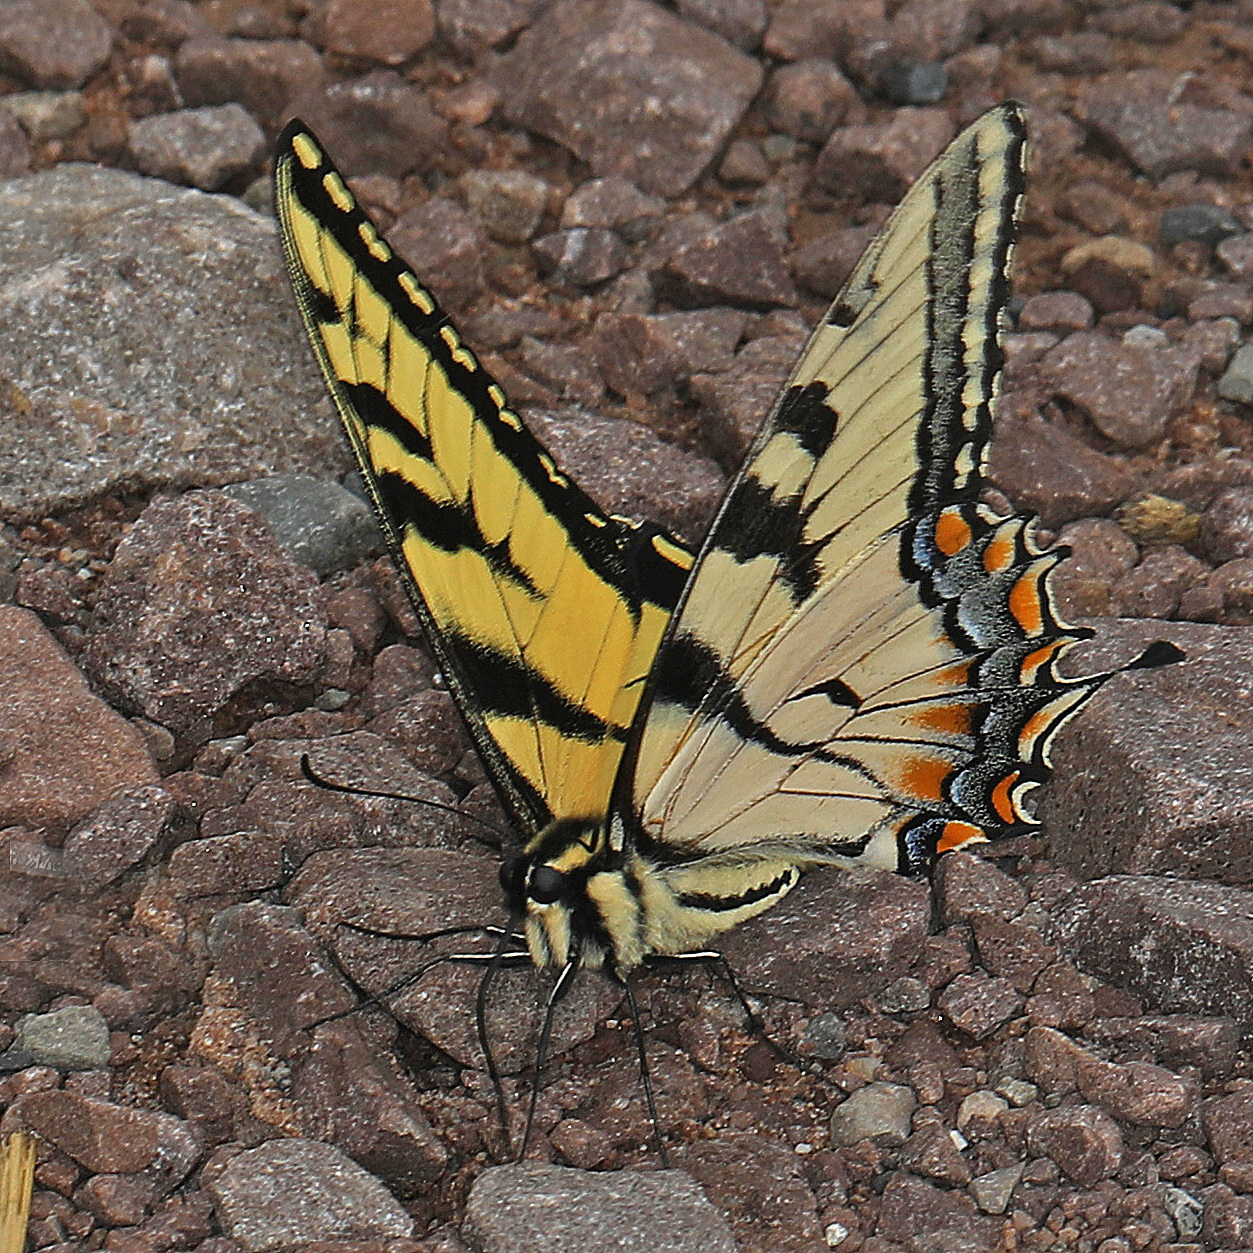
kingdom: Animalia
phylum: Arthropoda
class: Insecta
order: Lepidoptera
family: Papilionidae
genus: Papilio
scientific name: Papilio glaucus
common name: Tiger swallowtail
